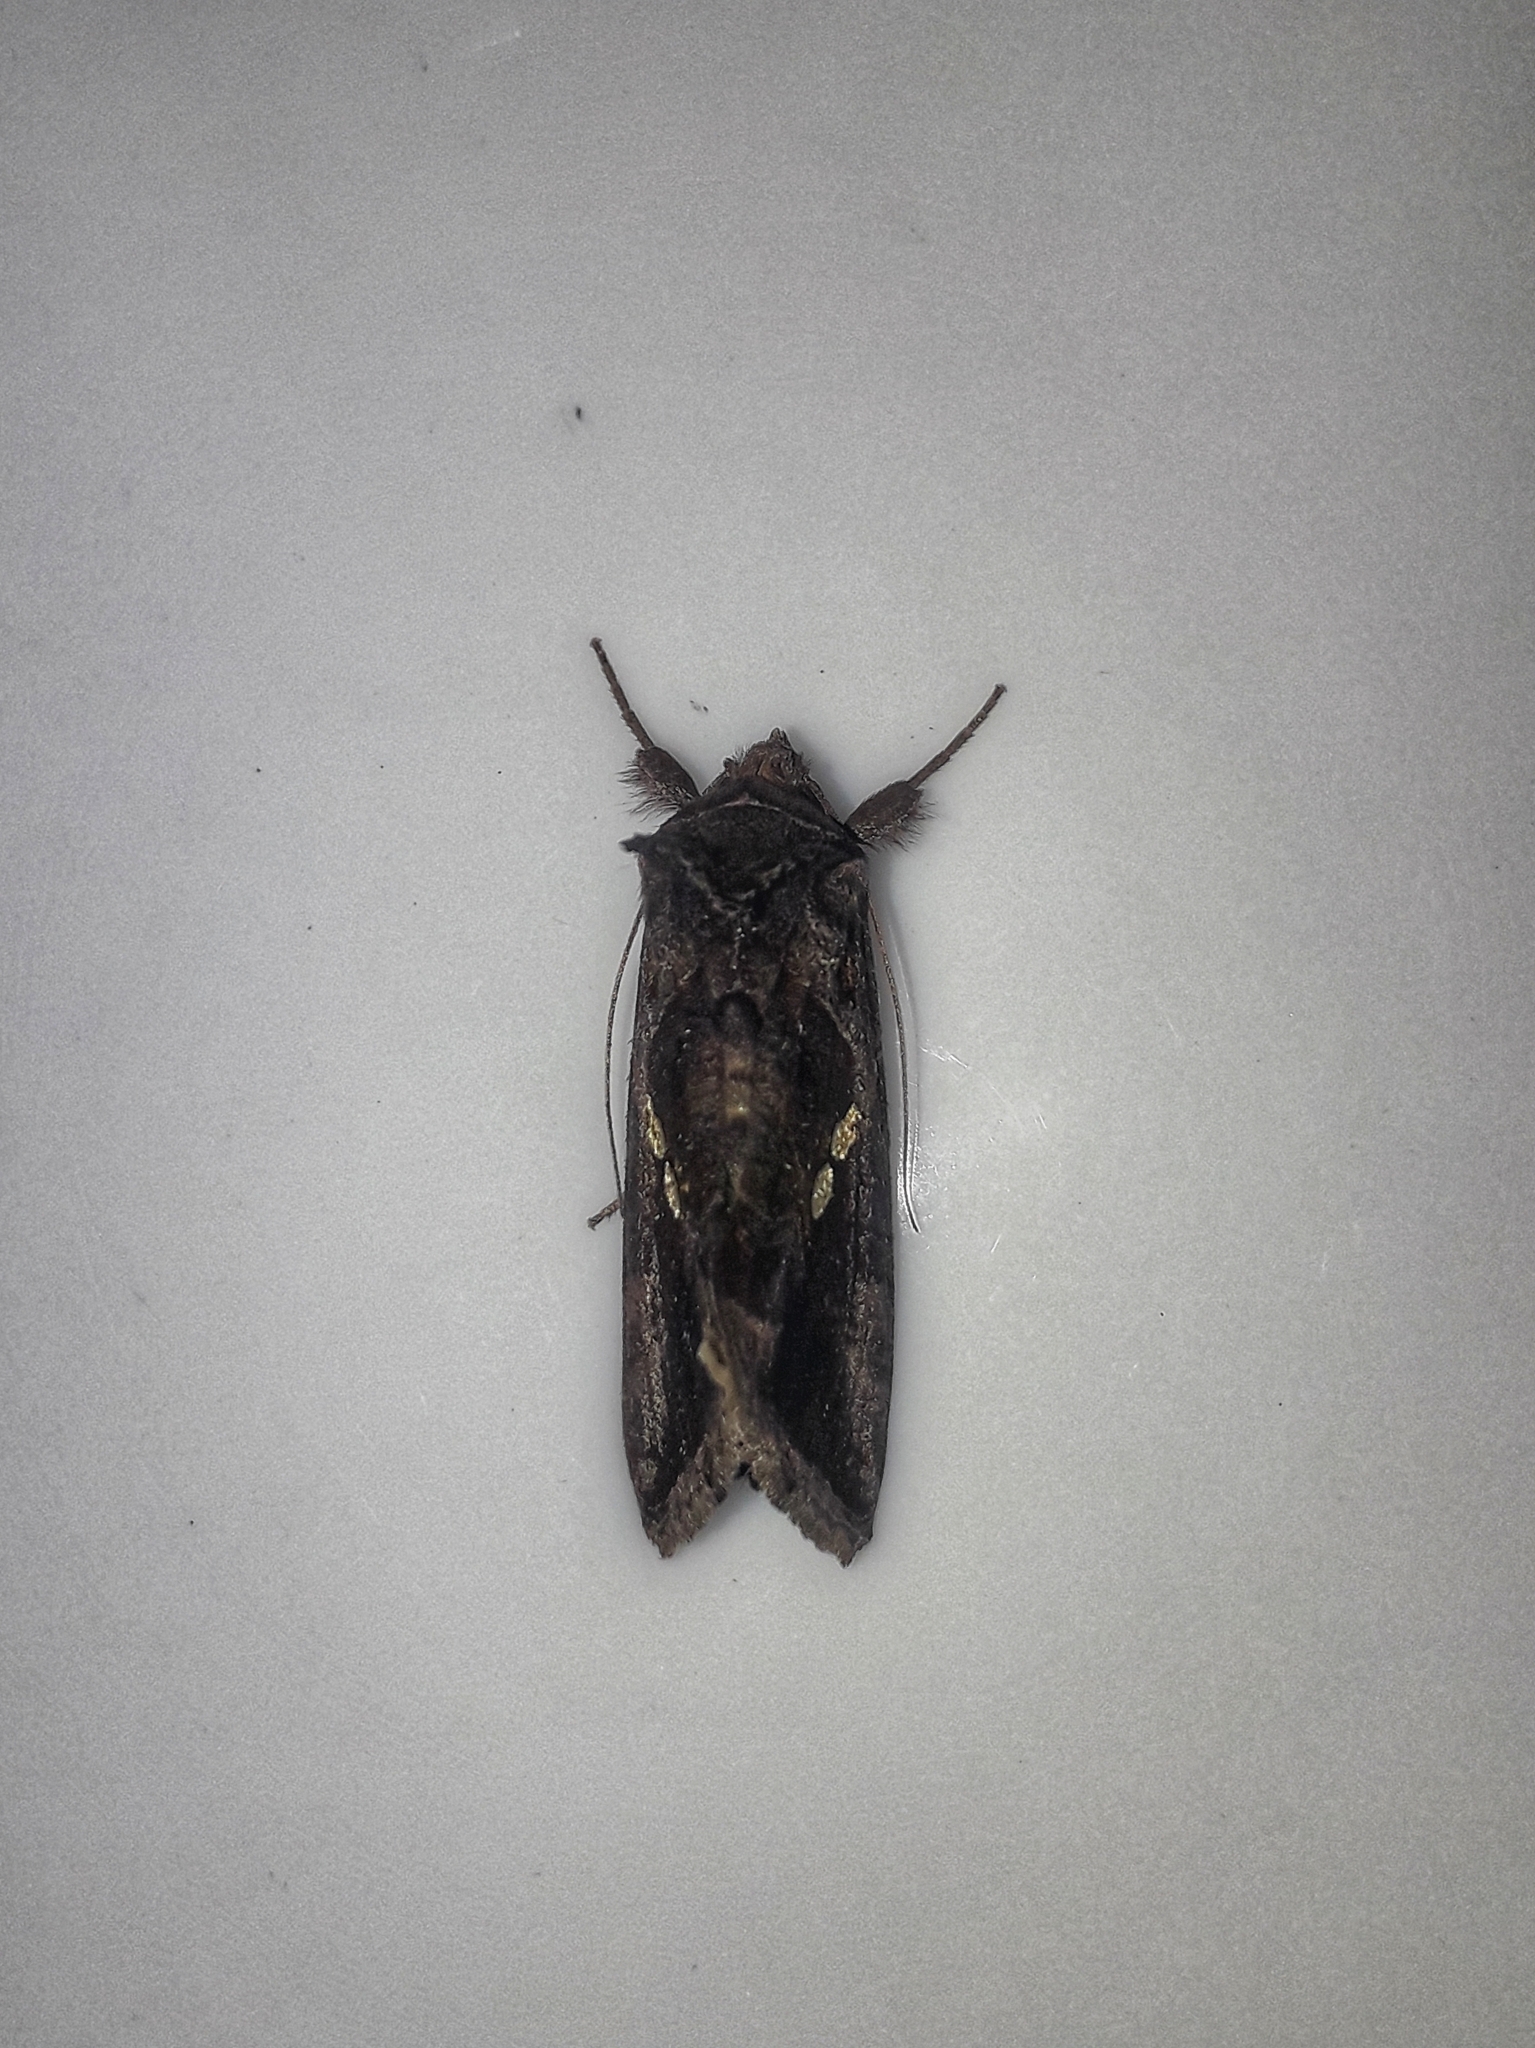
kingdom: Animalia
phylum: Arthropoda
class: Insecta
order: Lepidoptera
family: Noctuidae
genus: Chrysodeixis
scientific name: Chrysodeixis chalcites
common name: Golden twin-spot
